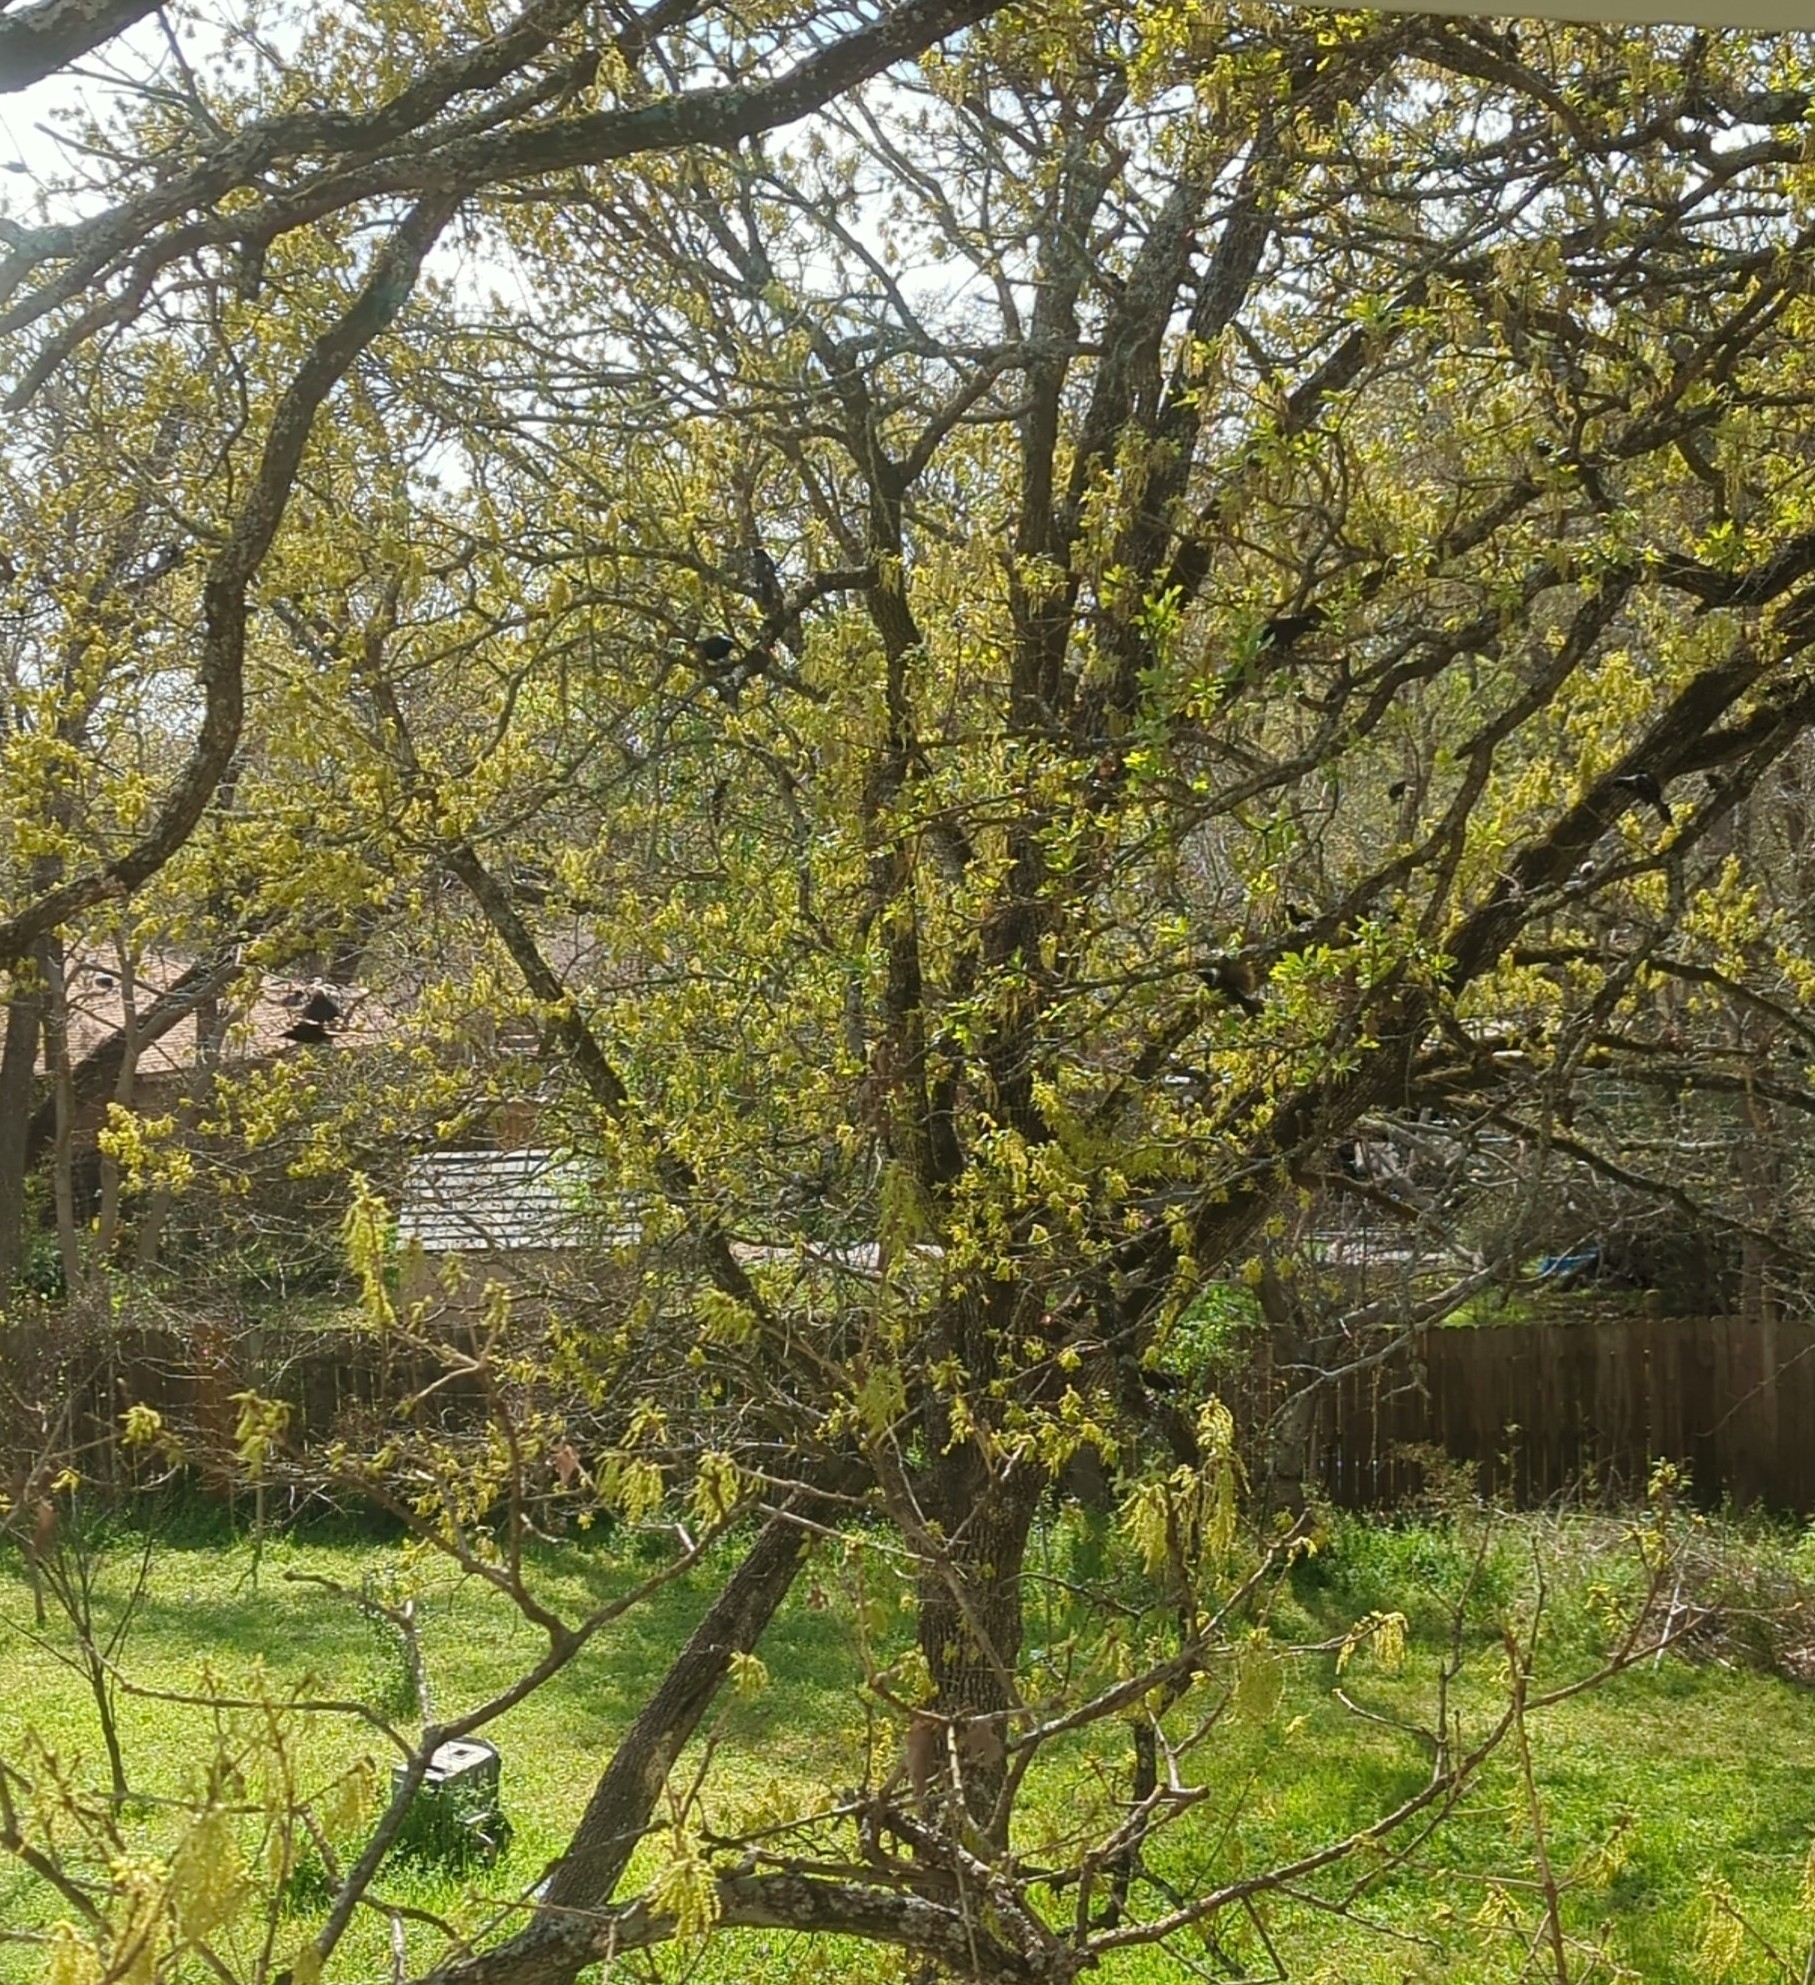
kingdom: Animalia
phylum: Chordata
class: Aves
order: Passeriformes
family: Icteridae
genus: Quiscalus
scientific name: Quiscalus quiscula
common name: Common grackle
